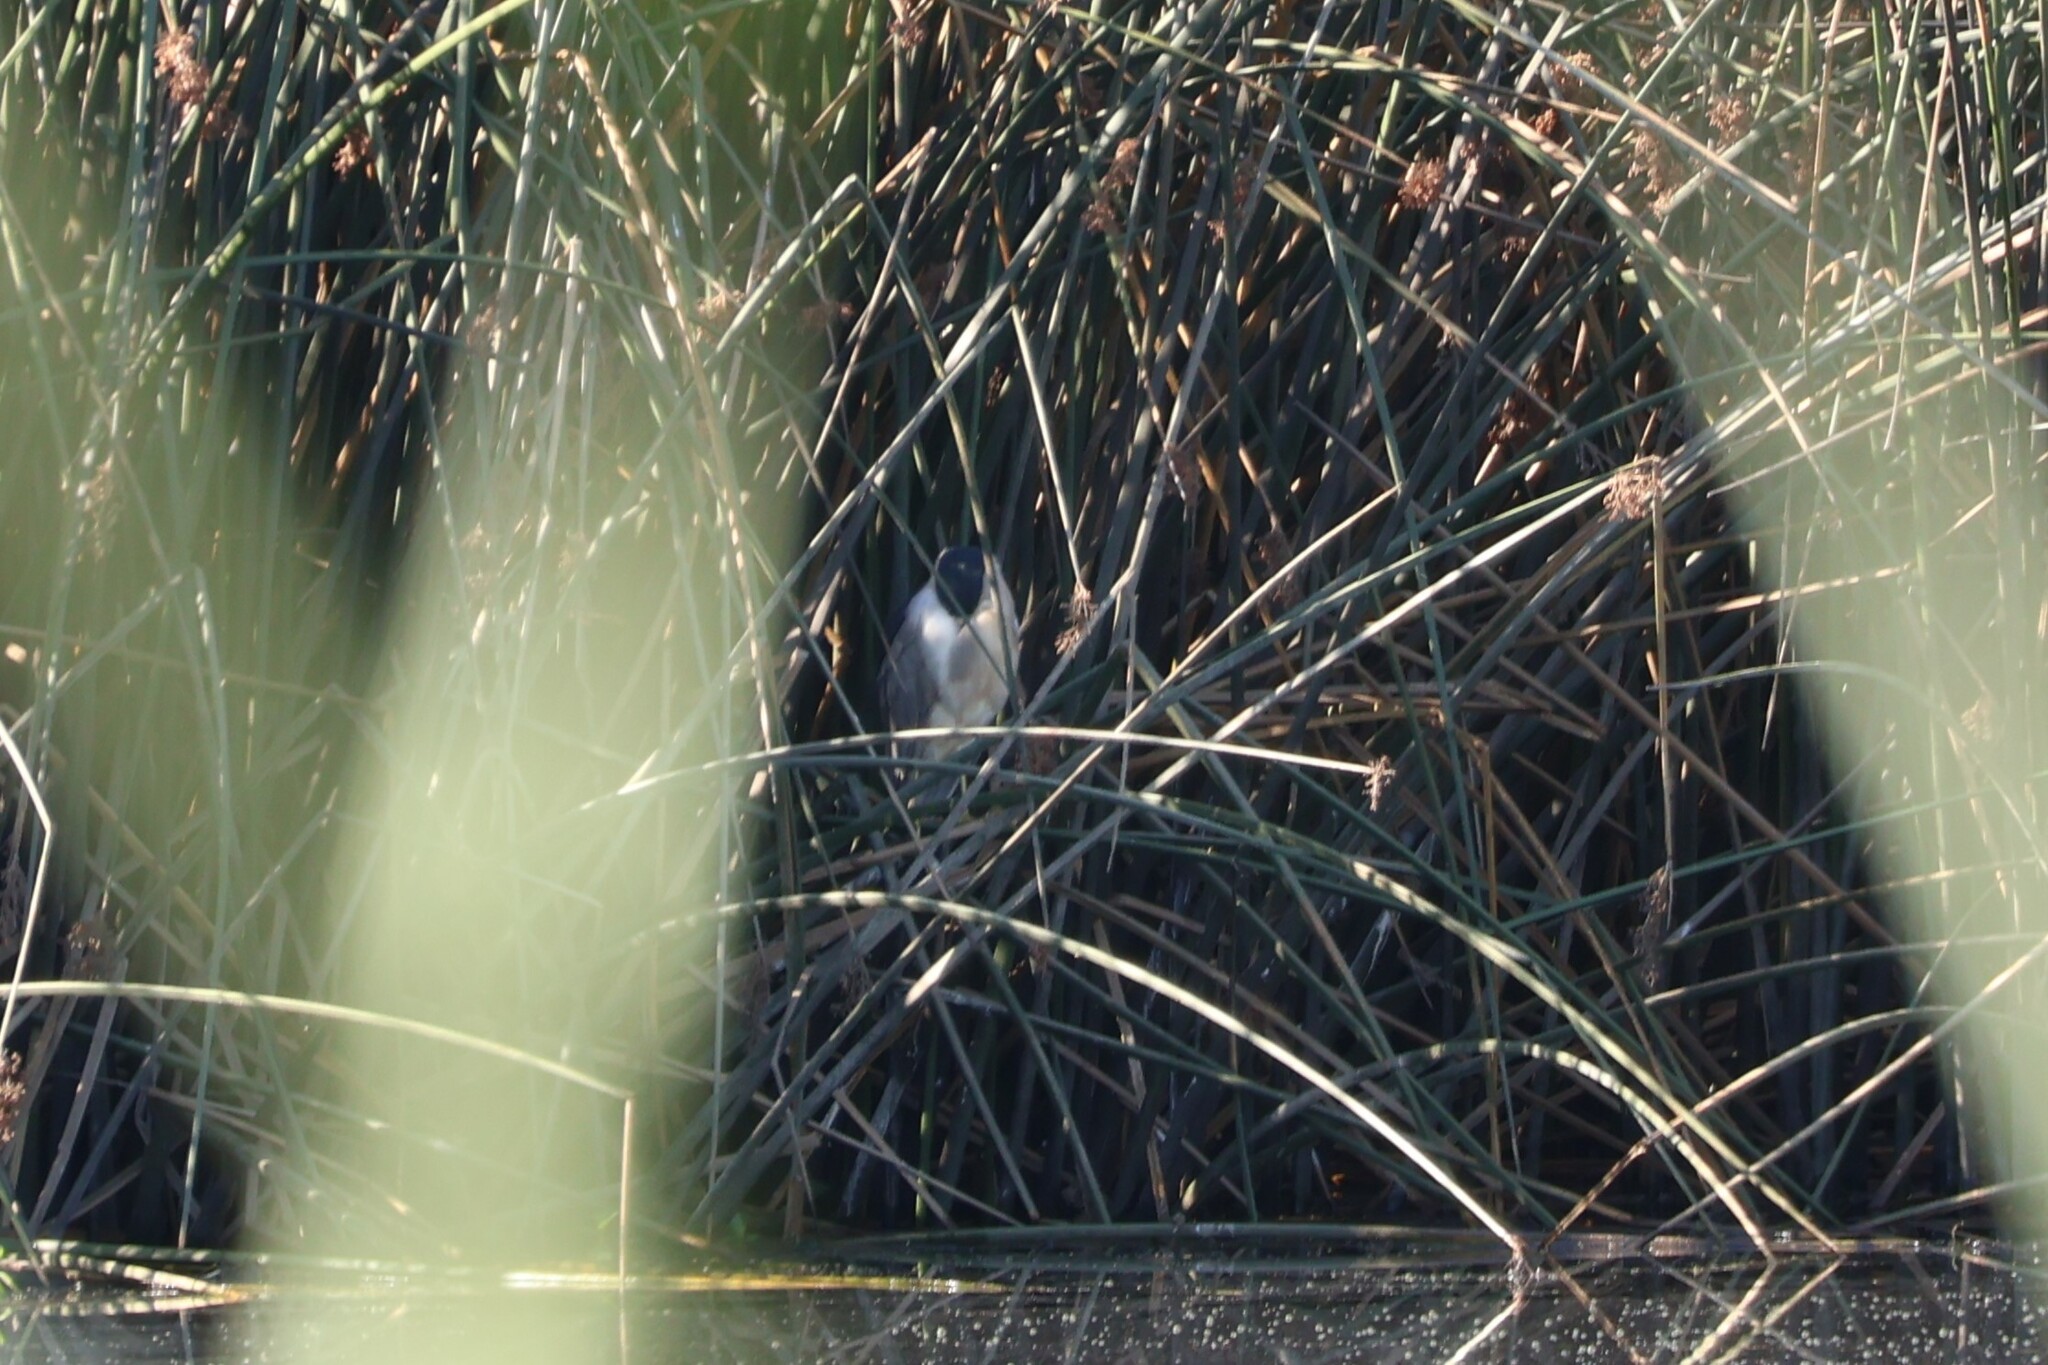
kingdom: Animalia
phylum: Chordata
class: Aves
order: Pelecaniformes
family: Ardeidae
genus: Nycticorax
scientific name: Nycticorax nycticorax
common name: Black-crowned night heron
